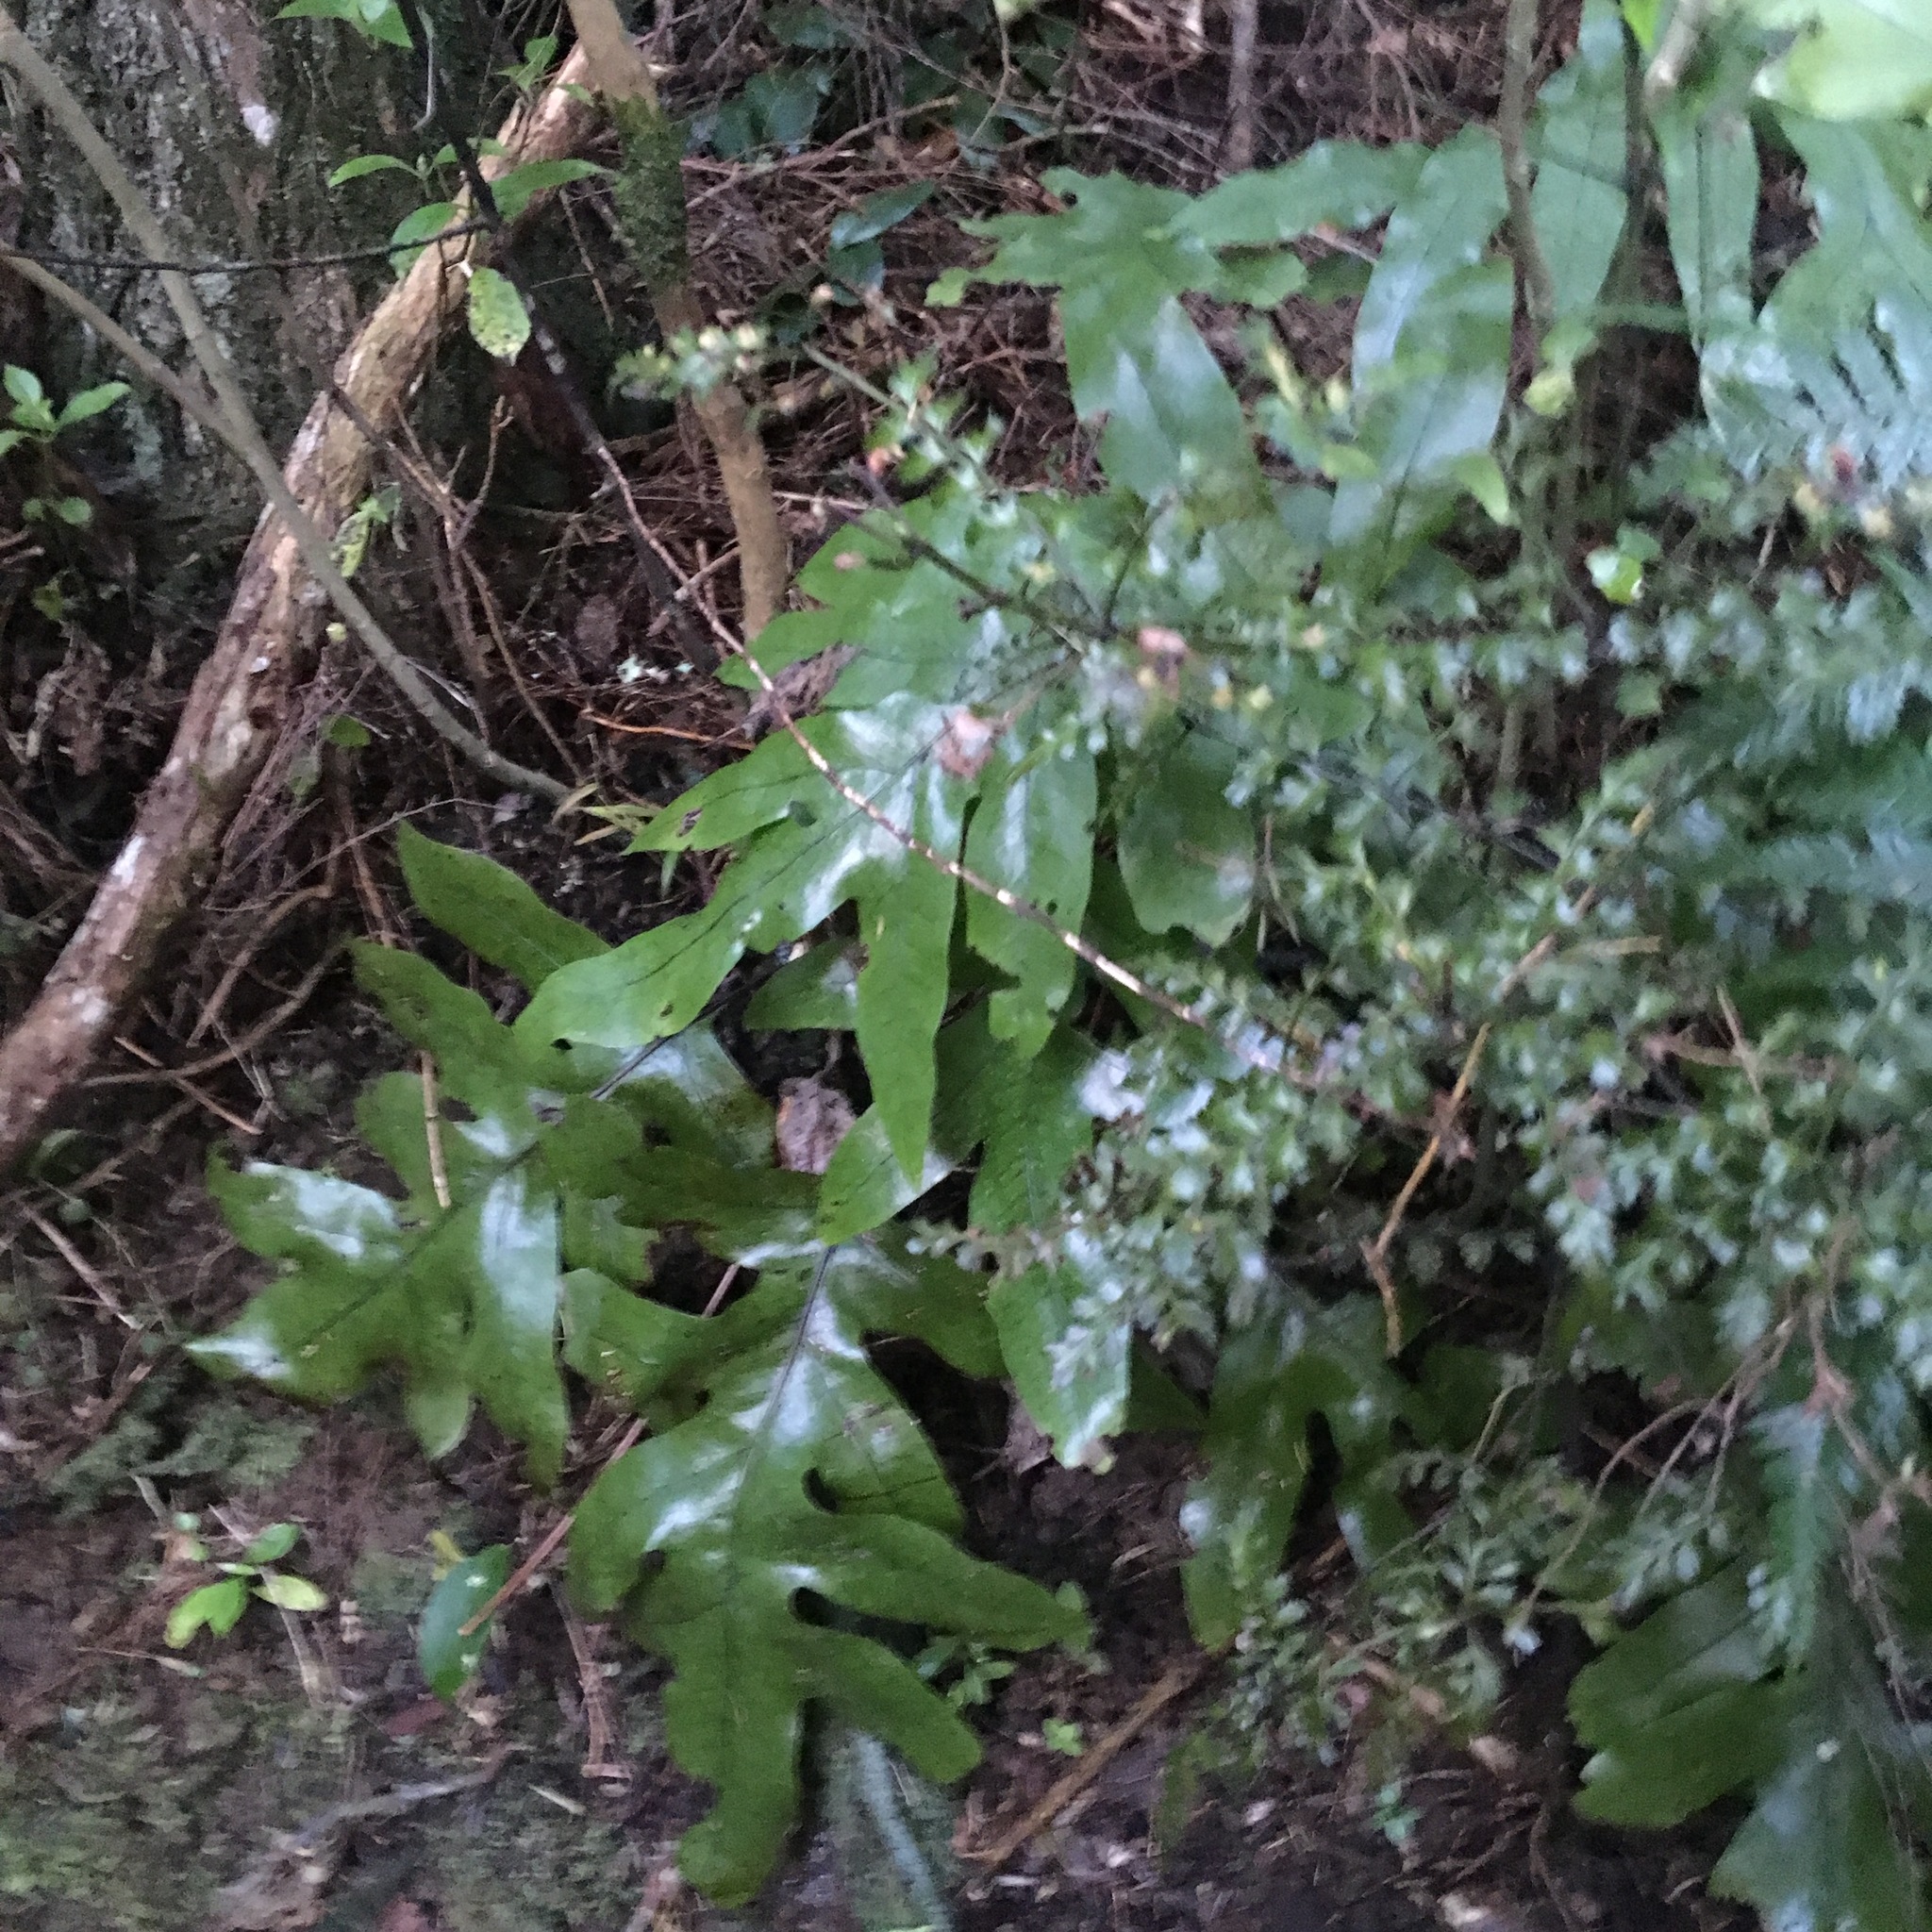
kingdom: Plantae
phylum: Tracheophyta
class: Polypodiopsida
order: Polypodiales
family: Polypodiaceae
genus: Lecanopteris
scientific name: Lecanopteris pustulata
